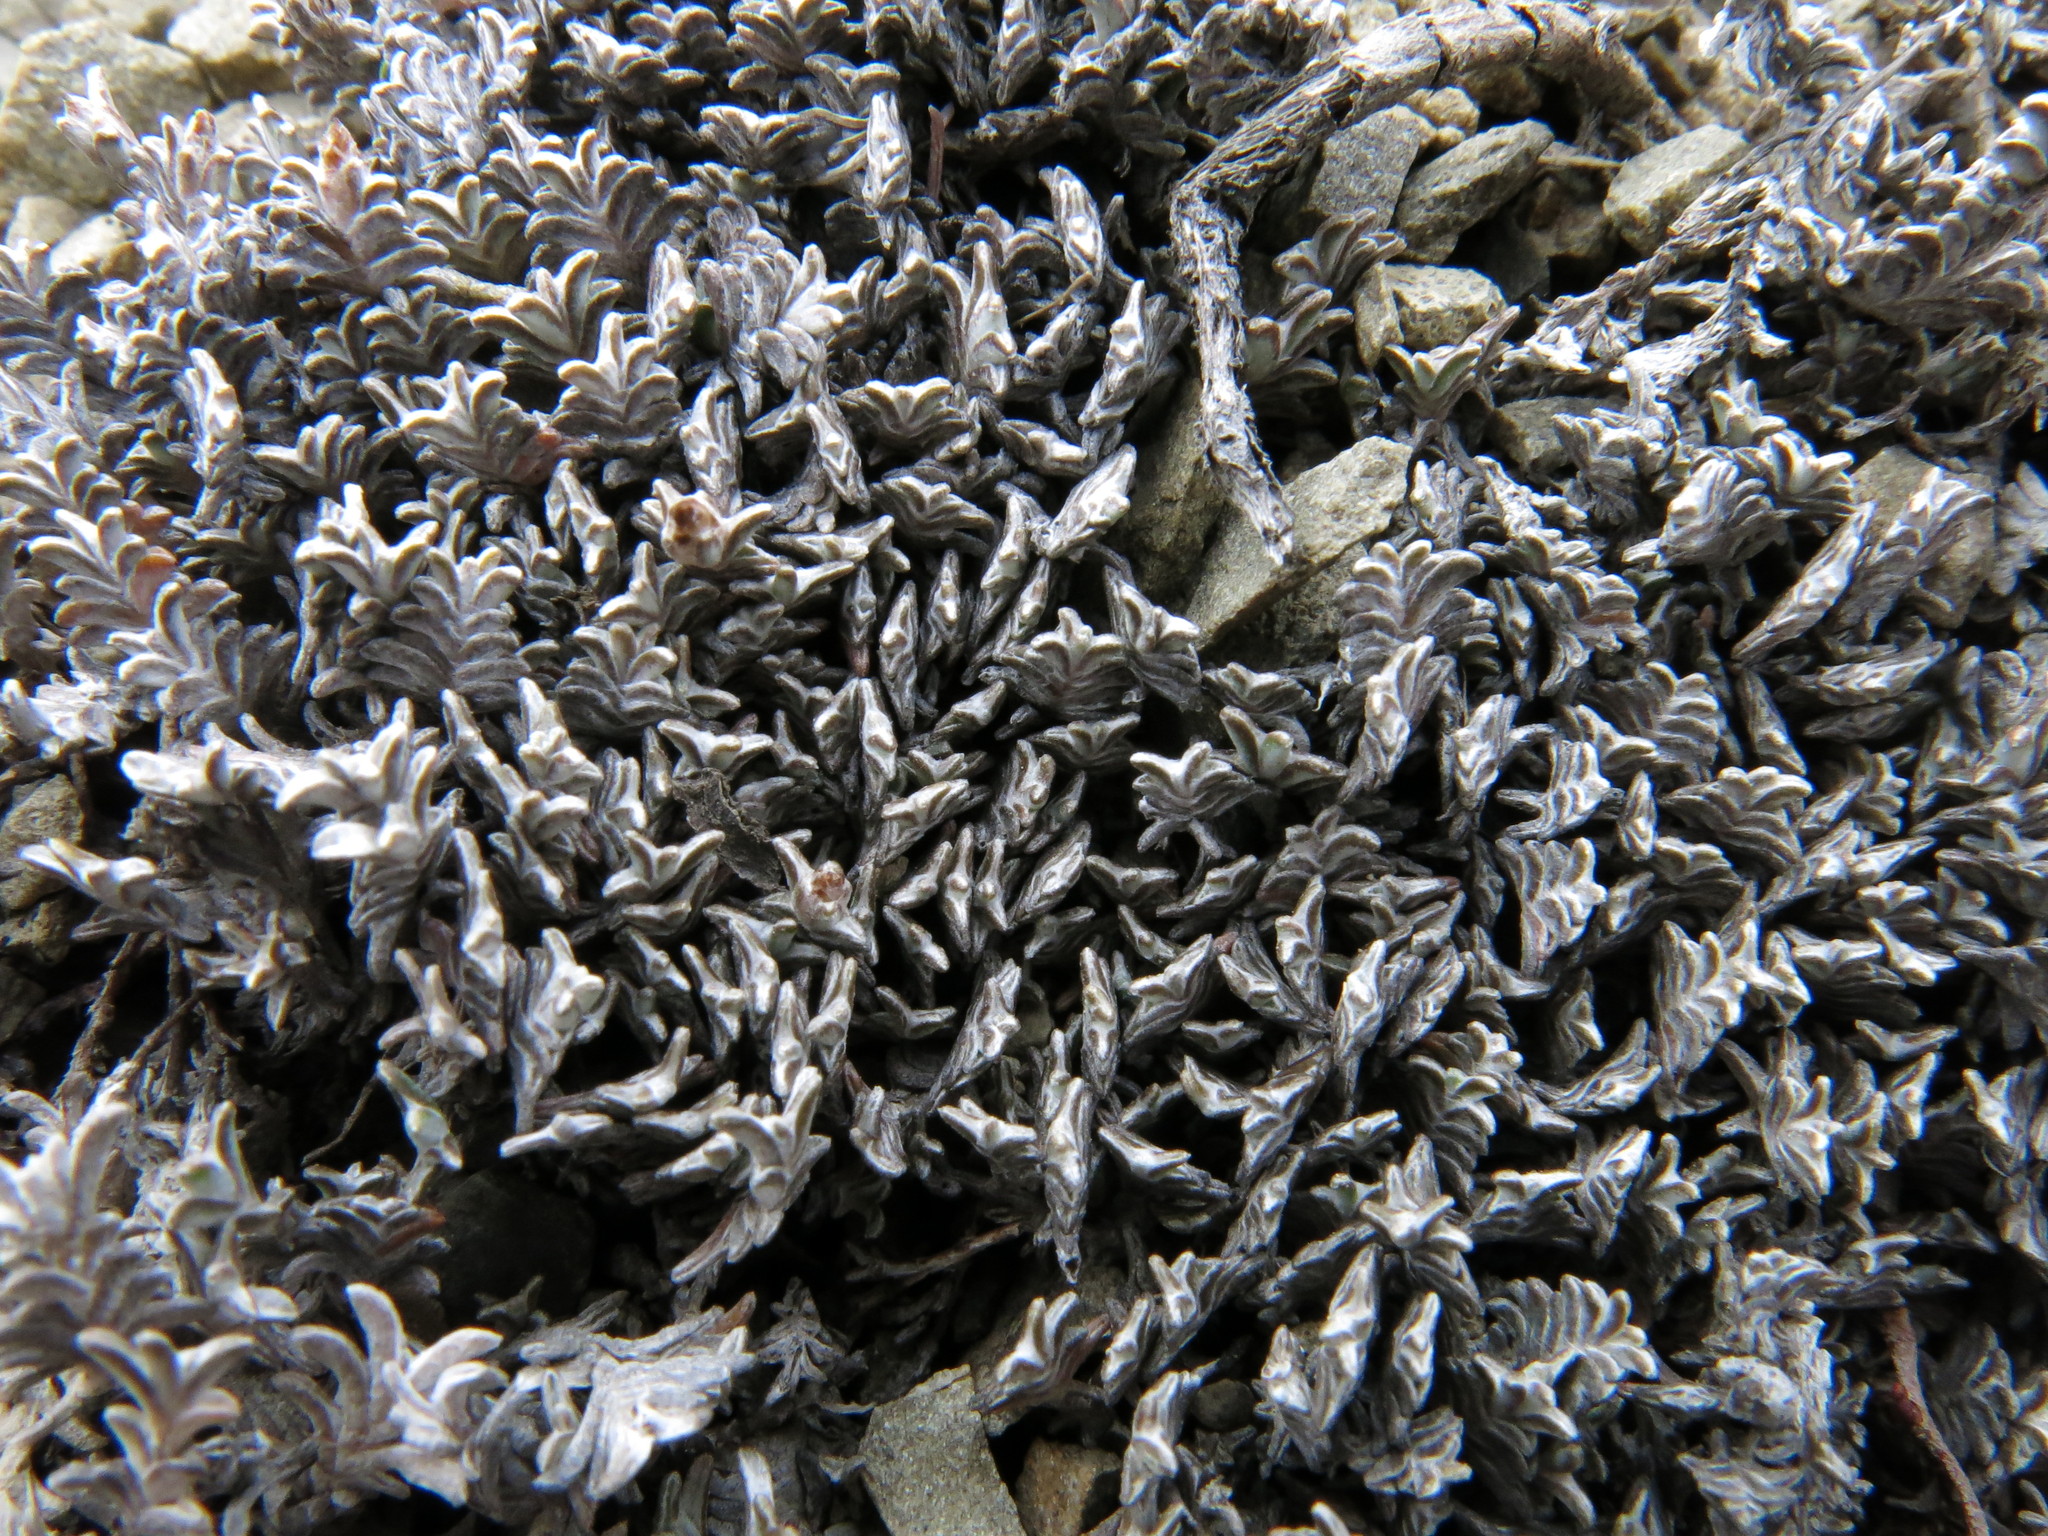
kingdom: Plantae
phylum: Tracheophyta
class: Magnoliopsida
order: Asterales
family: Asteraceae
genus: Raoulia
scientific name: Raoulia monroi
